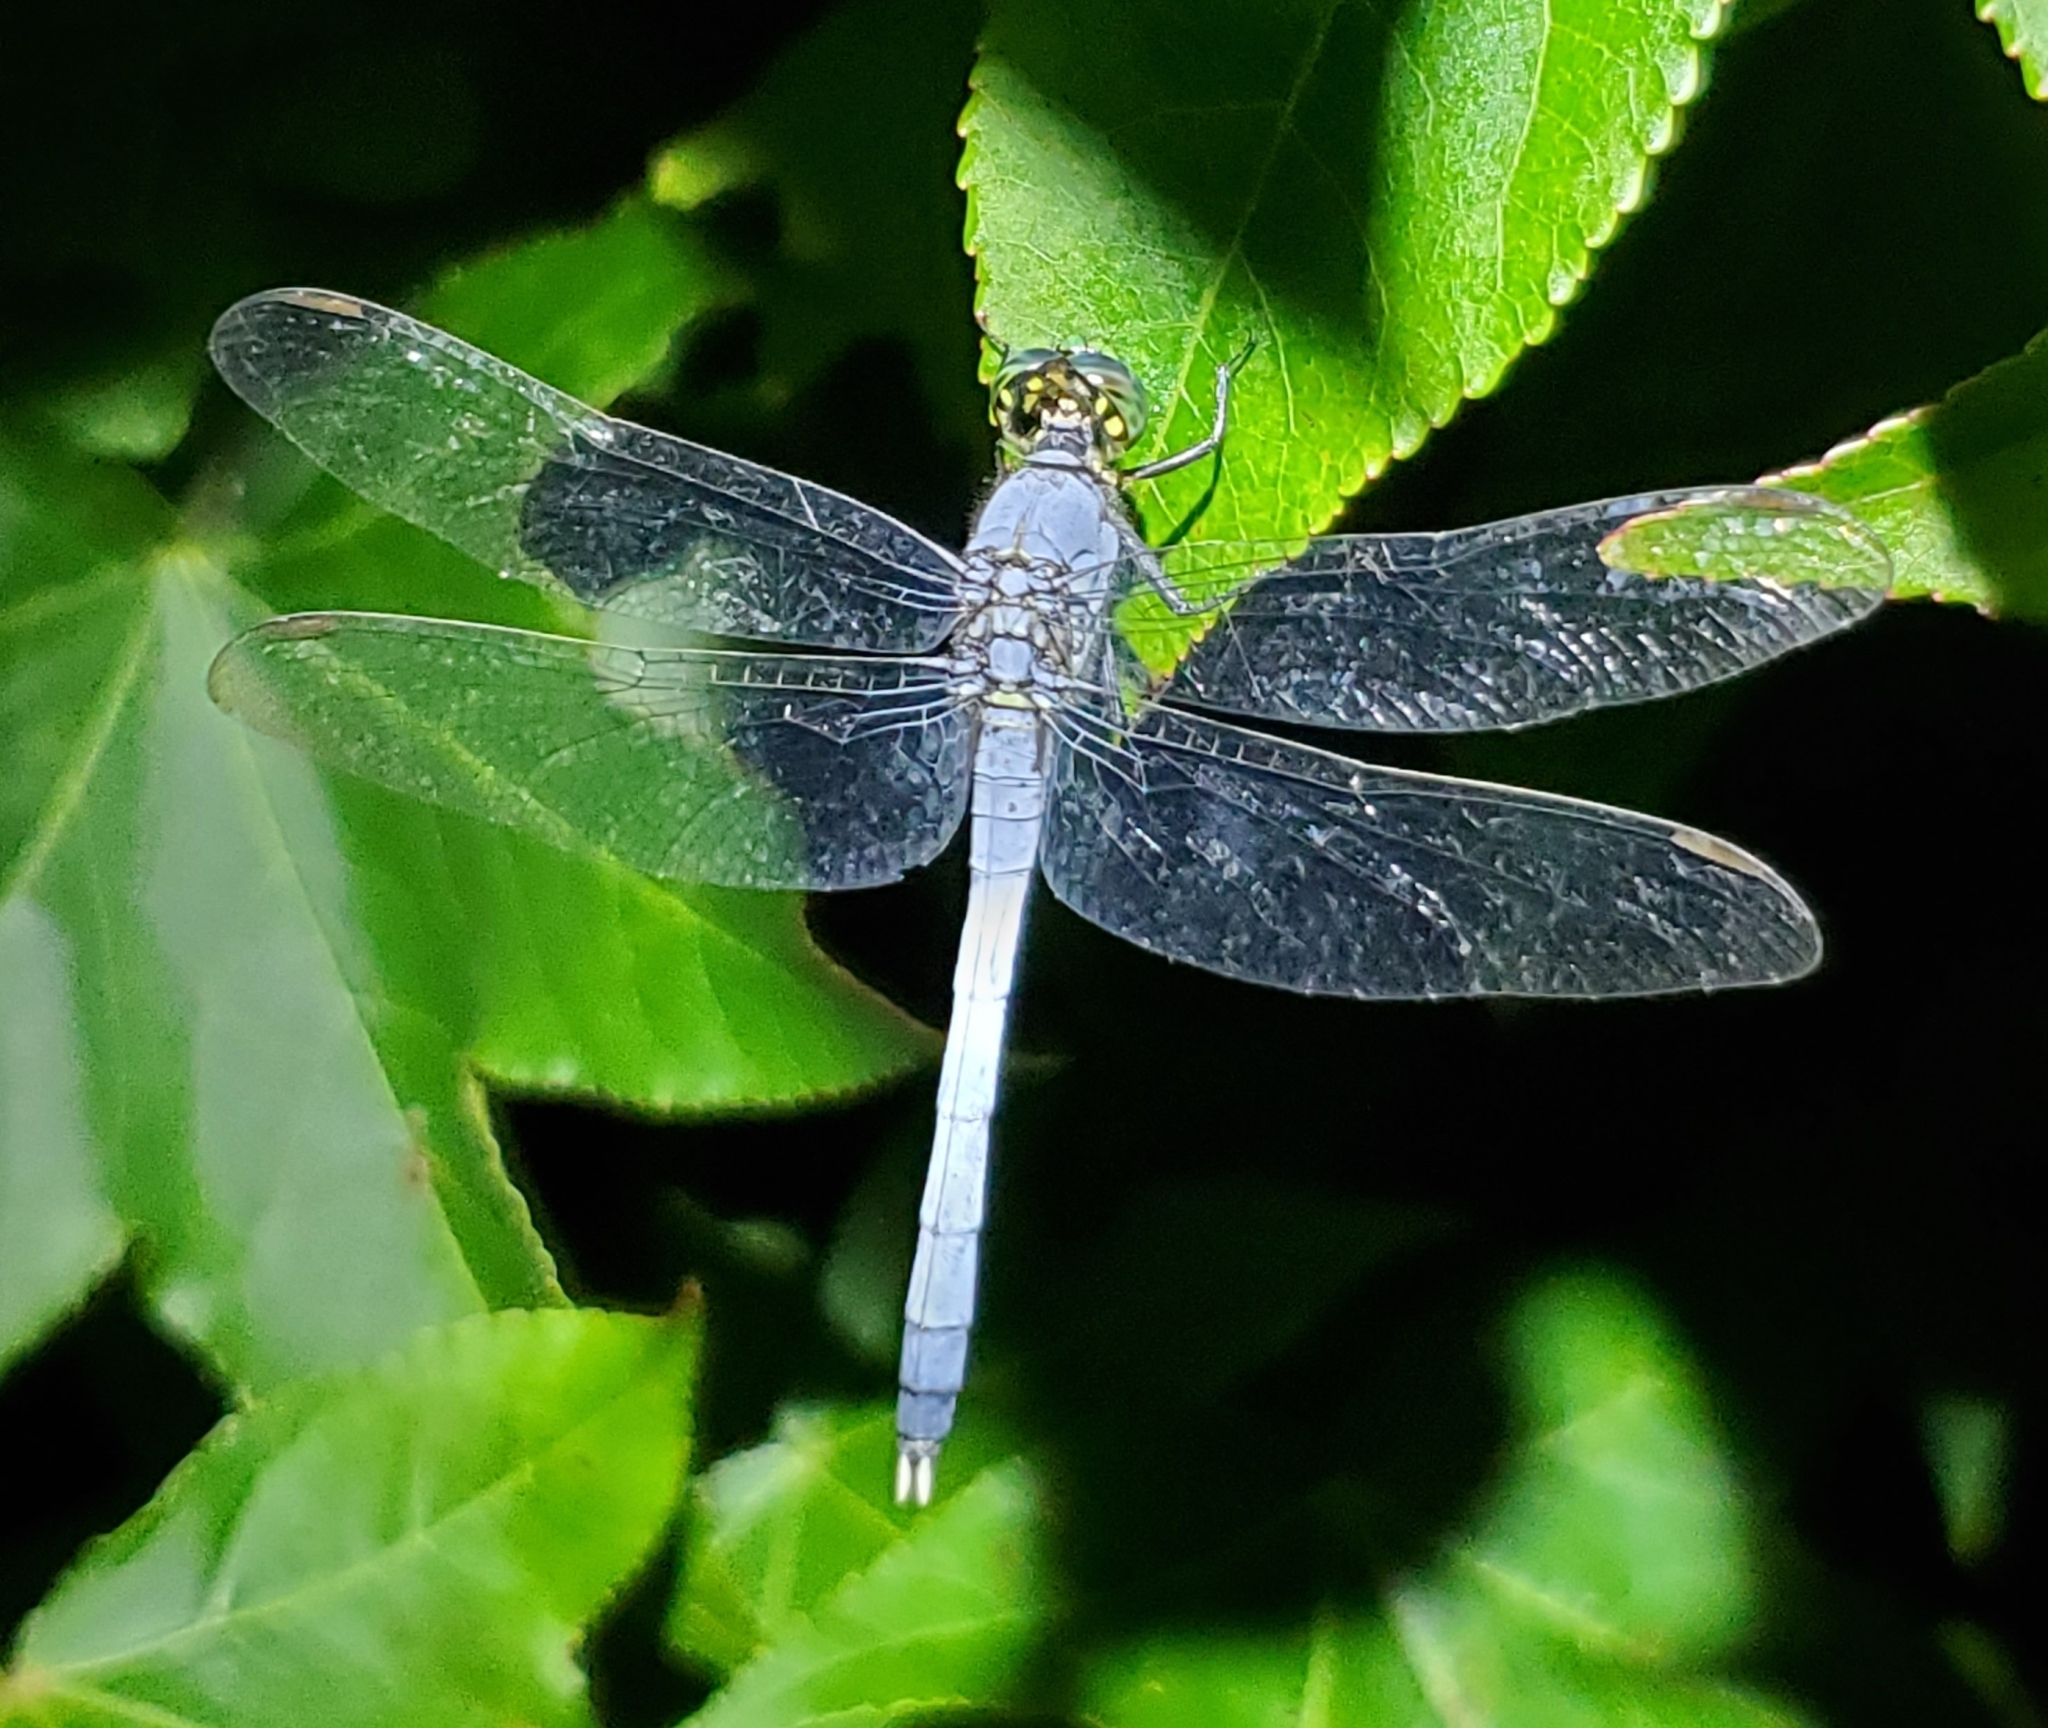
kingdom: Animalia
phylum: Arthropoda
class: Insecta
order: Odonata
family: Libellulidae
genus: Erythemis
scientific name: Erythemis simplicicollis
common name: Eastern pondhawk
